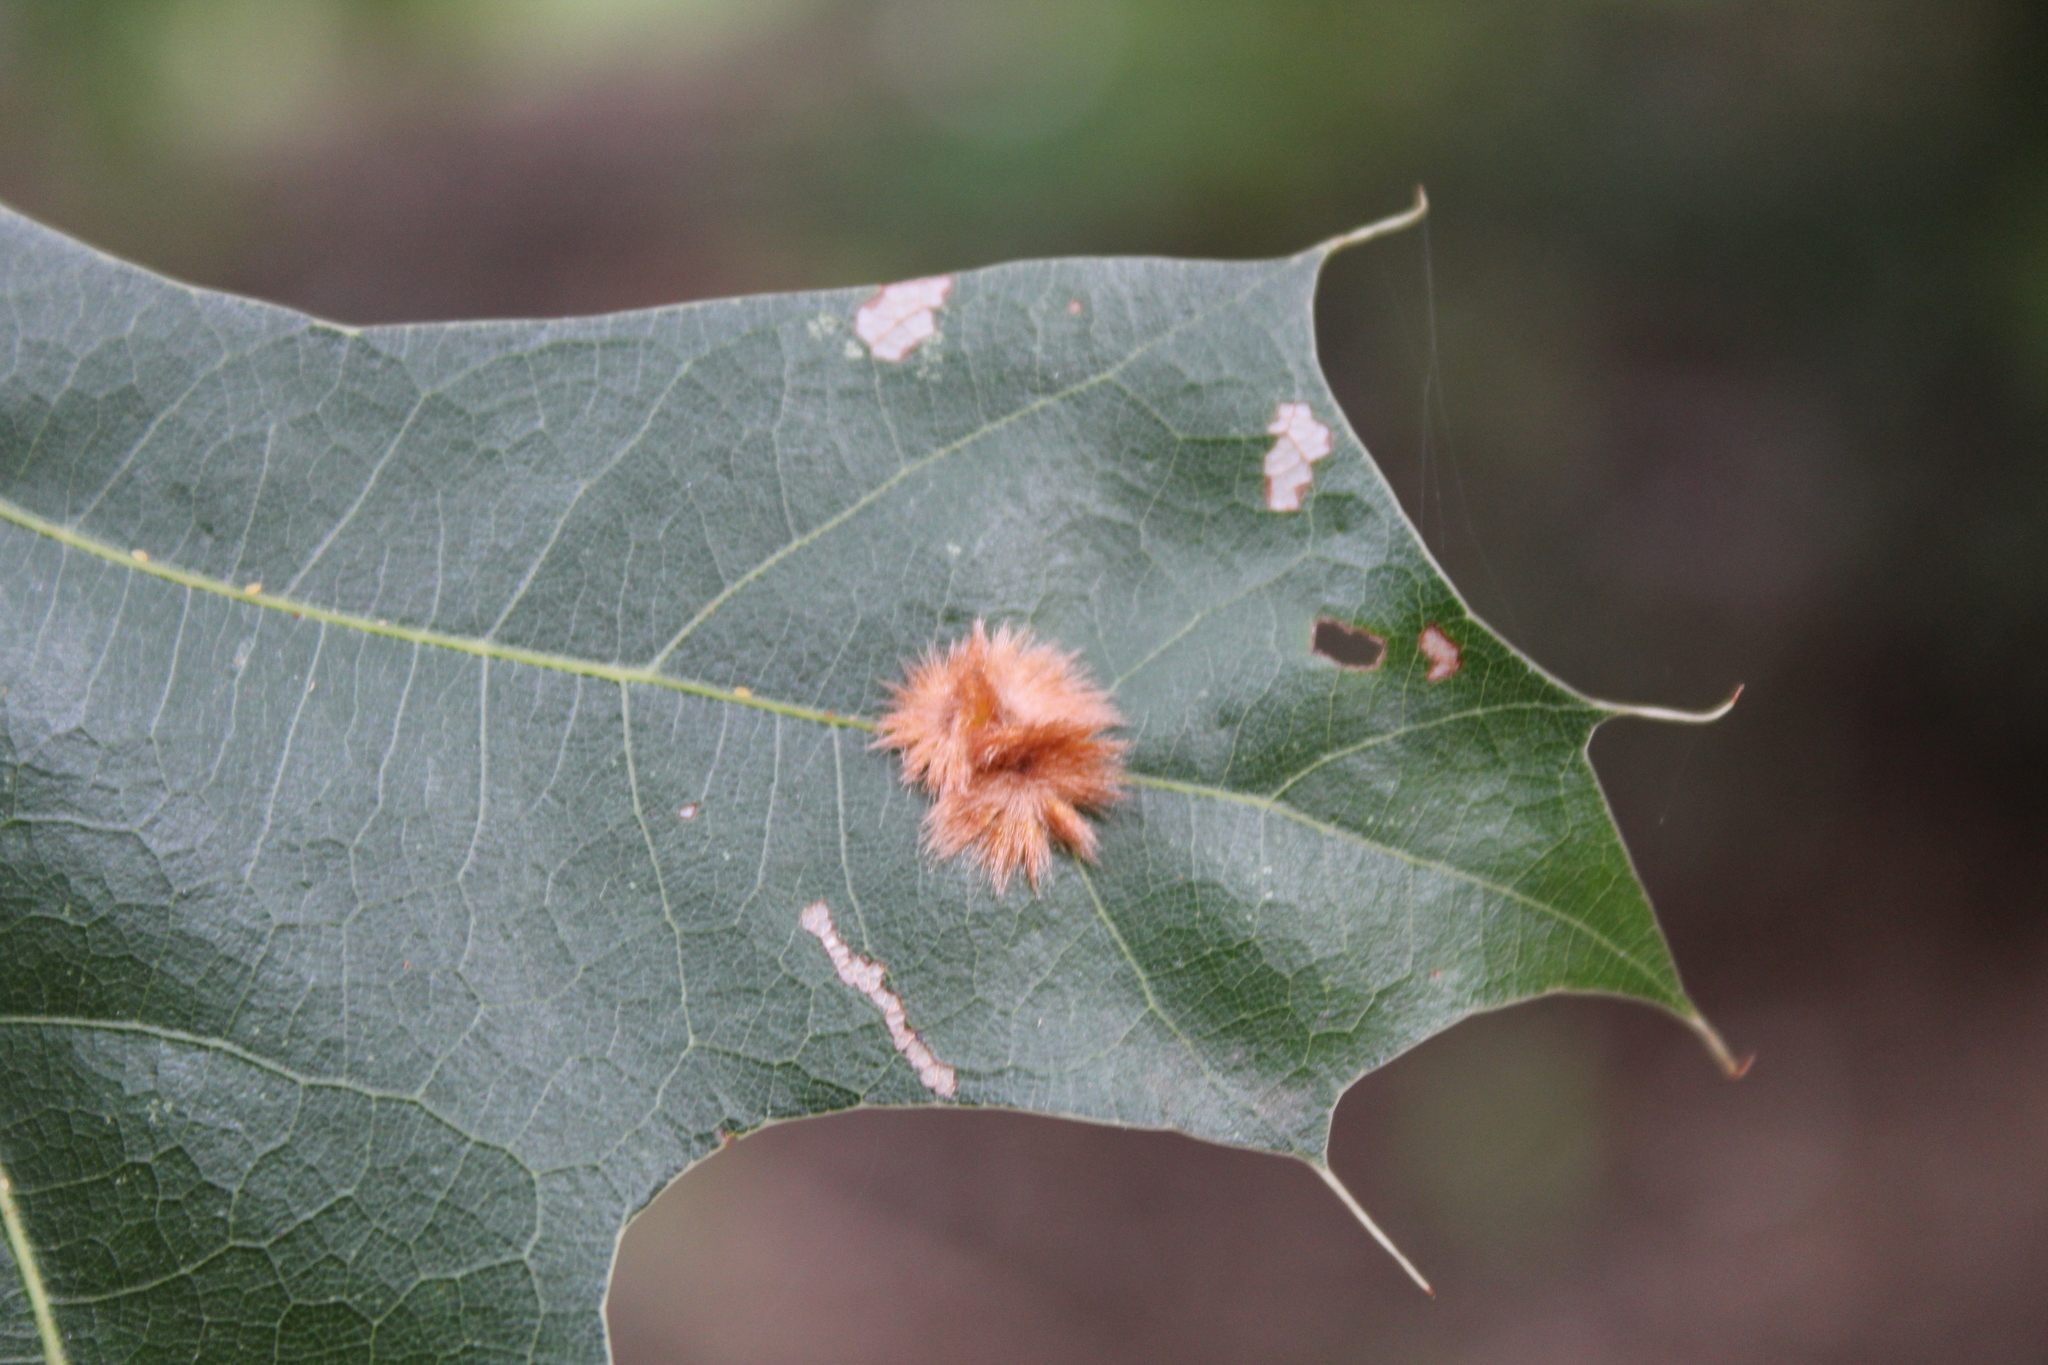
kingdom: Animalia
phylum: Arthropoda
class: Insecta
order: Hymenoptera
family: Cynipidae
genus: Callirhytis
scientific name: Callirhytis
